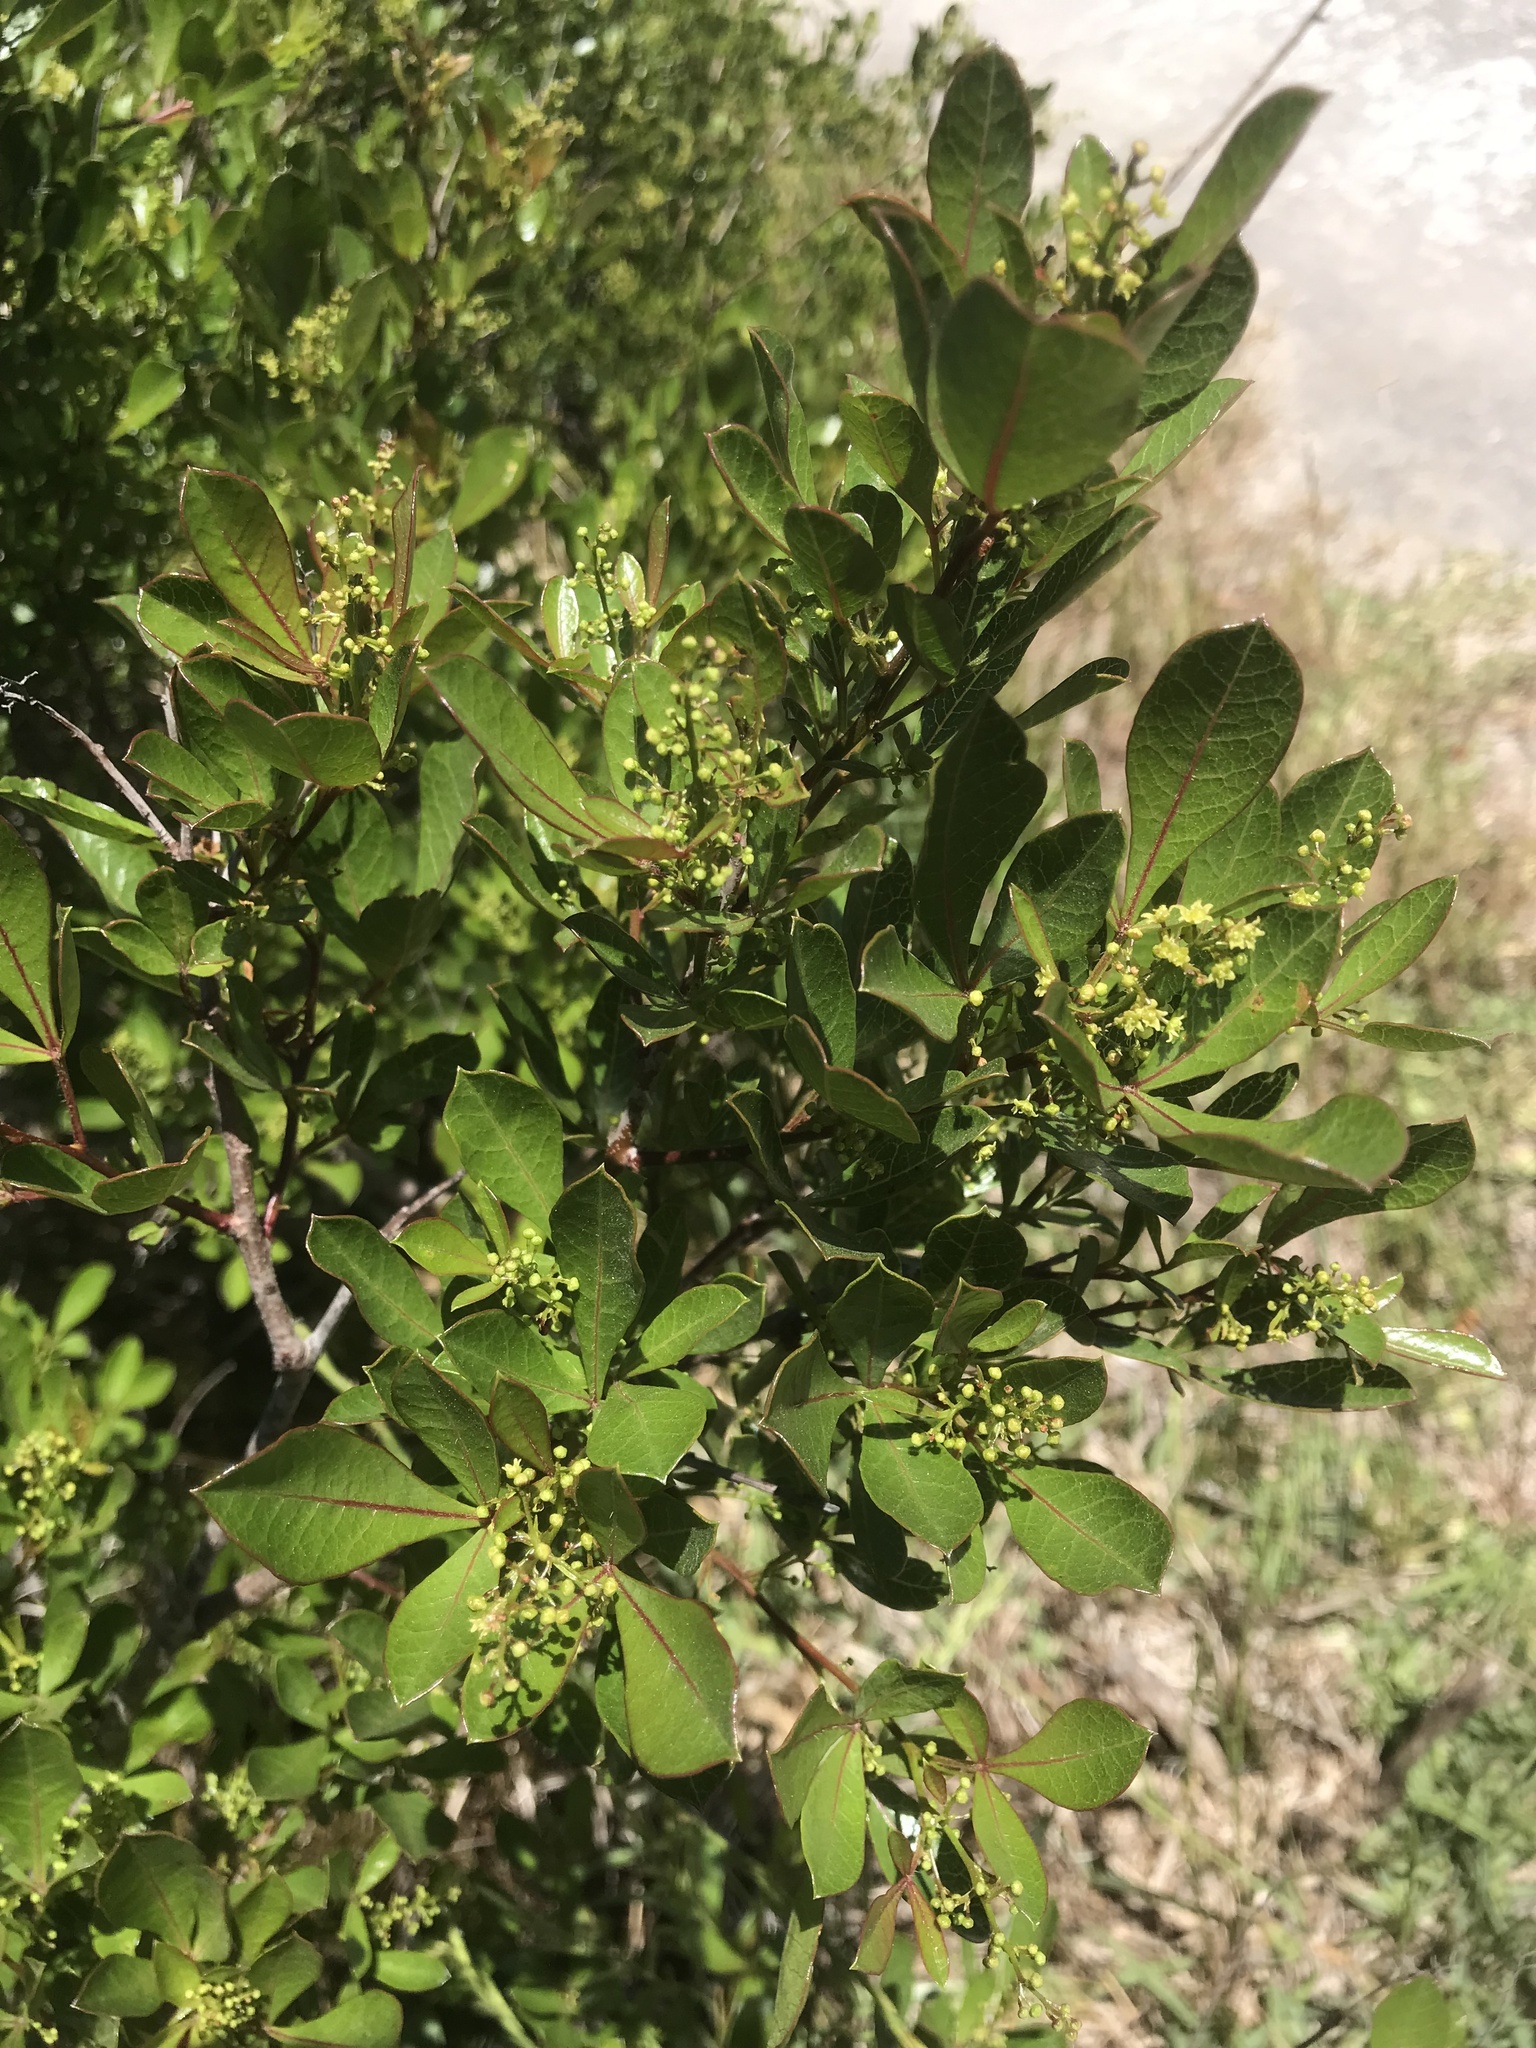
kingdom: Plantae
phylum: Tracheophyta
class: Magnoliopsida
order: Sapindales
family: Anacardiaceae
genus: Searsia
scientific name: Searsia laevigata
